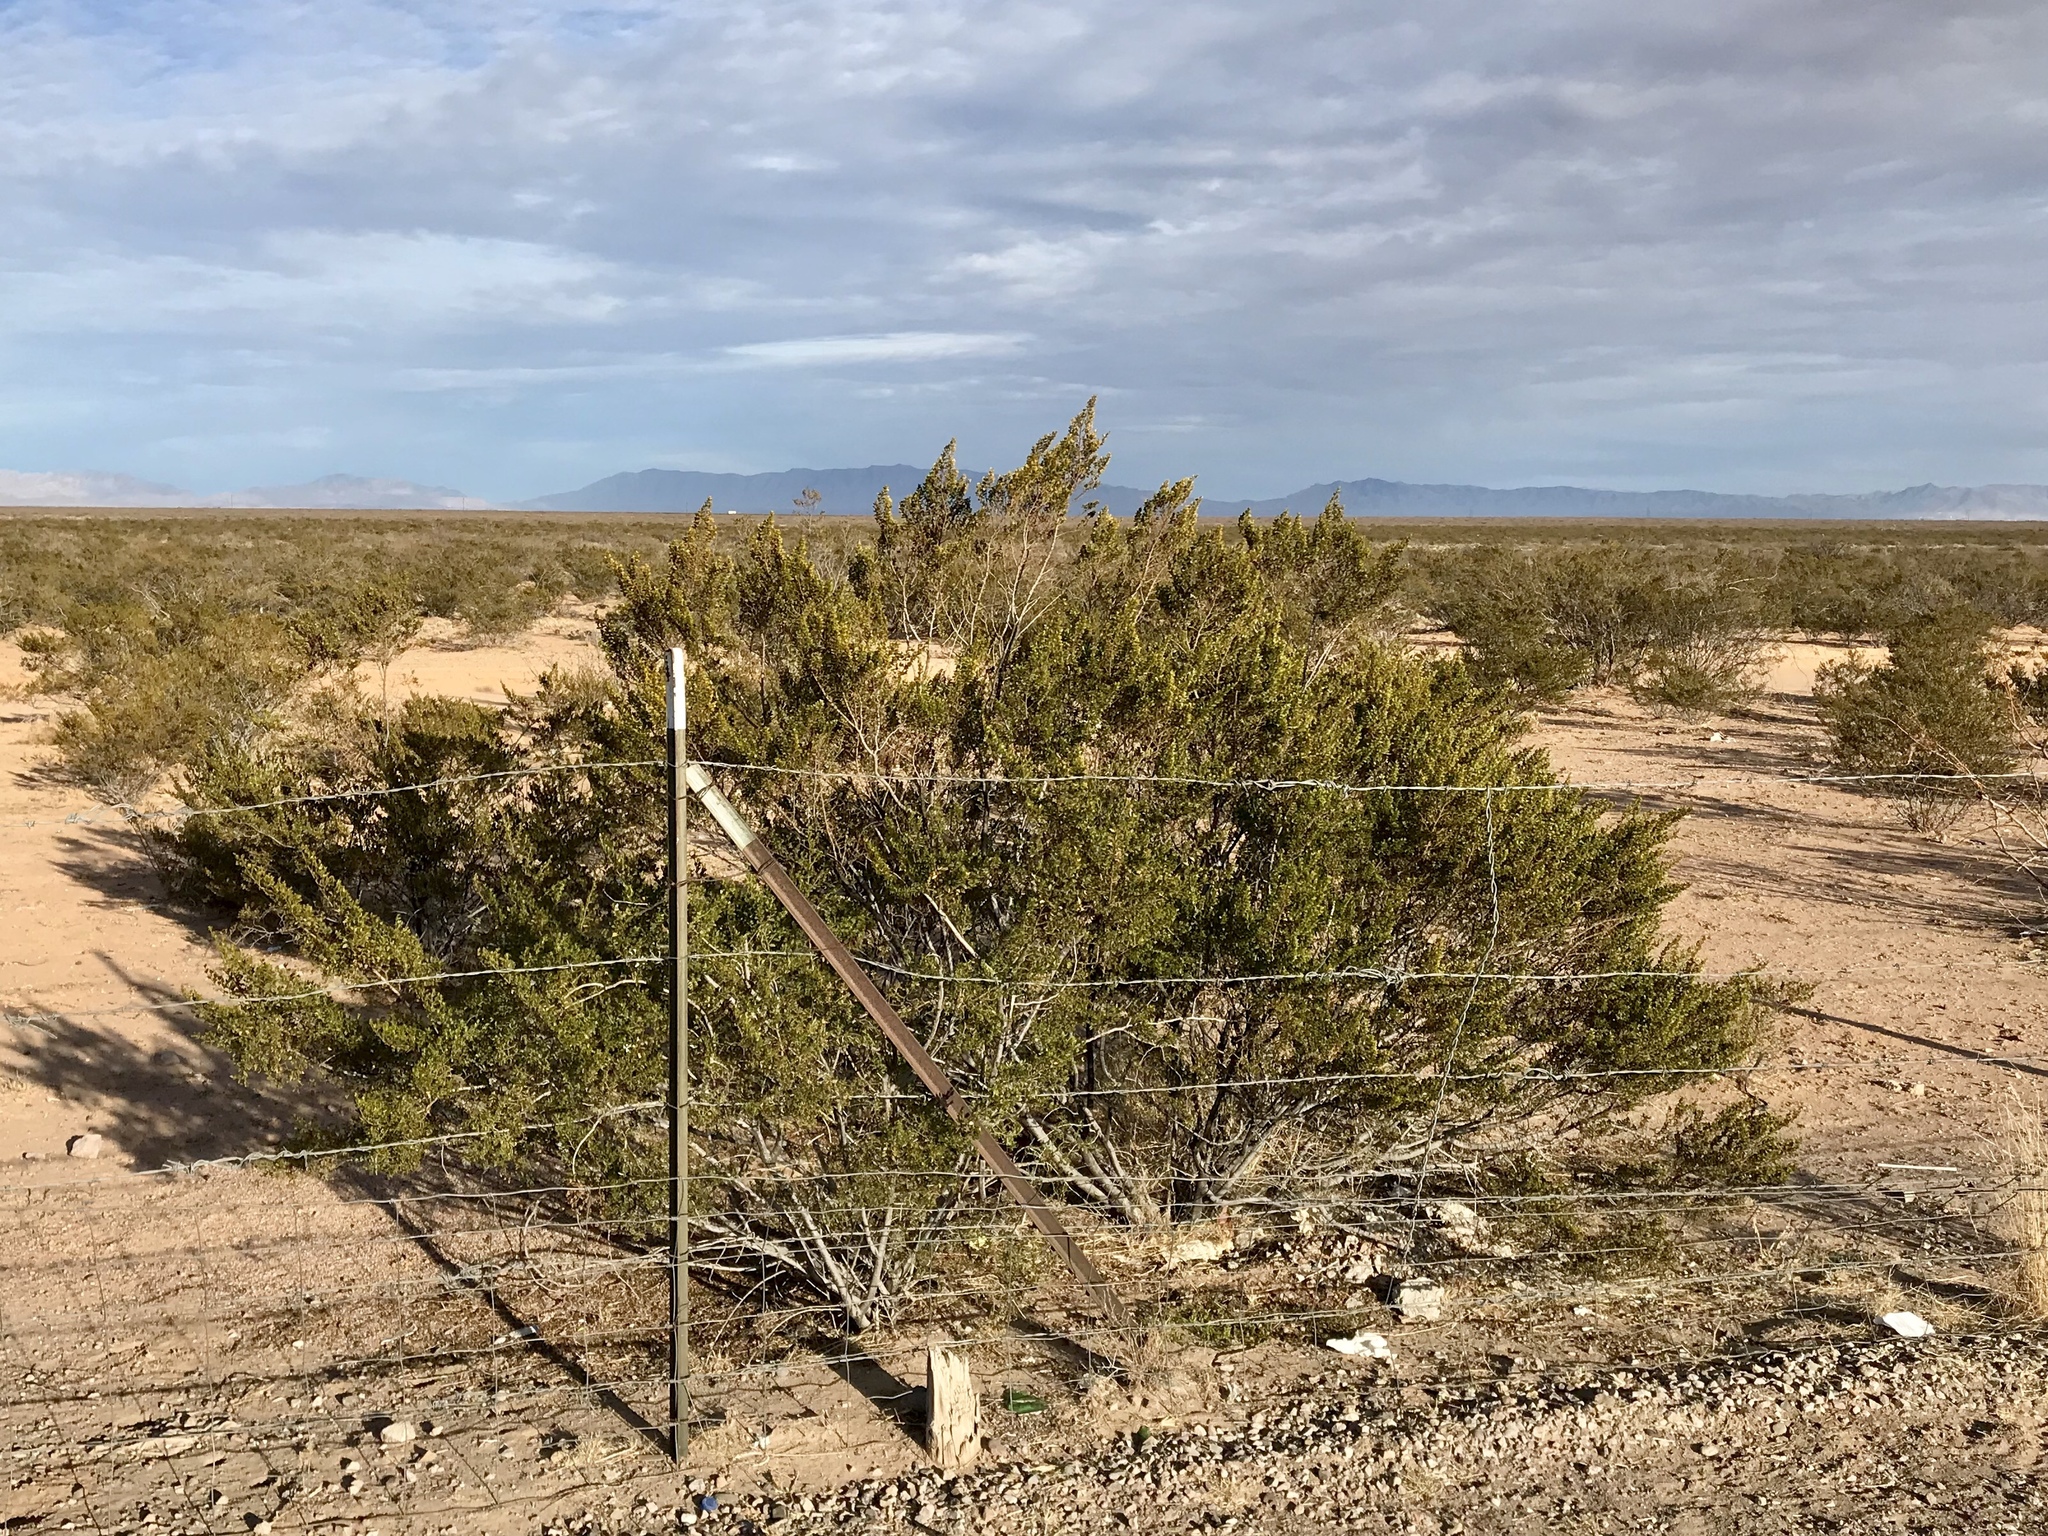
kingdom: Plantae
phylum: Tracheophyta
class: Magnoliopsida
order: Zygophyllales
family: Zygophyllaceae
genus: Larrea
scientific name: Larrea tridentata
